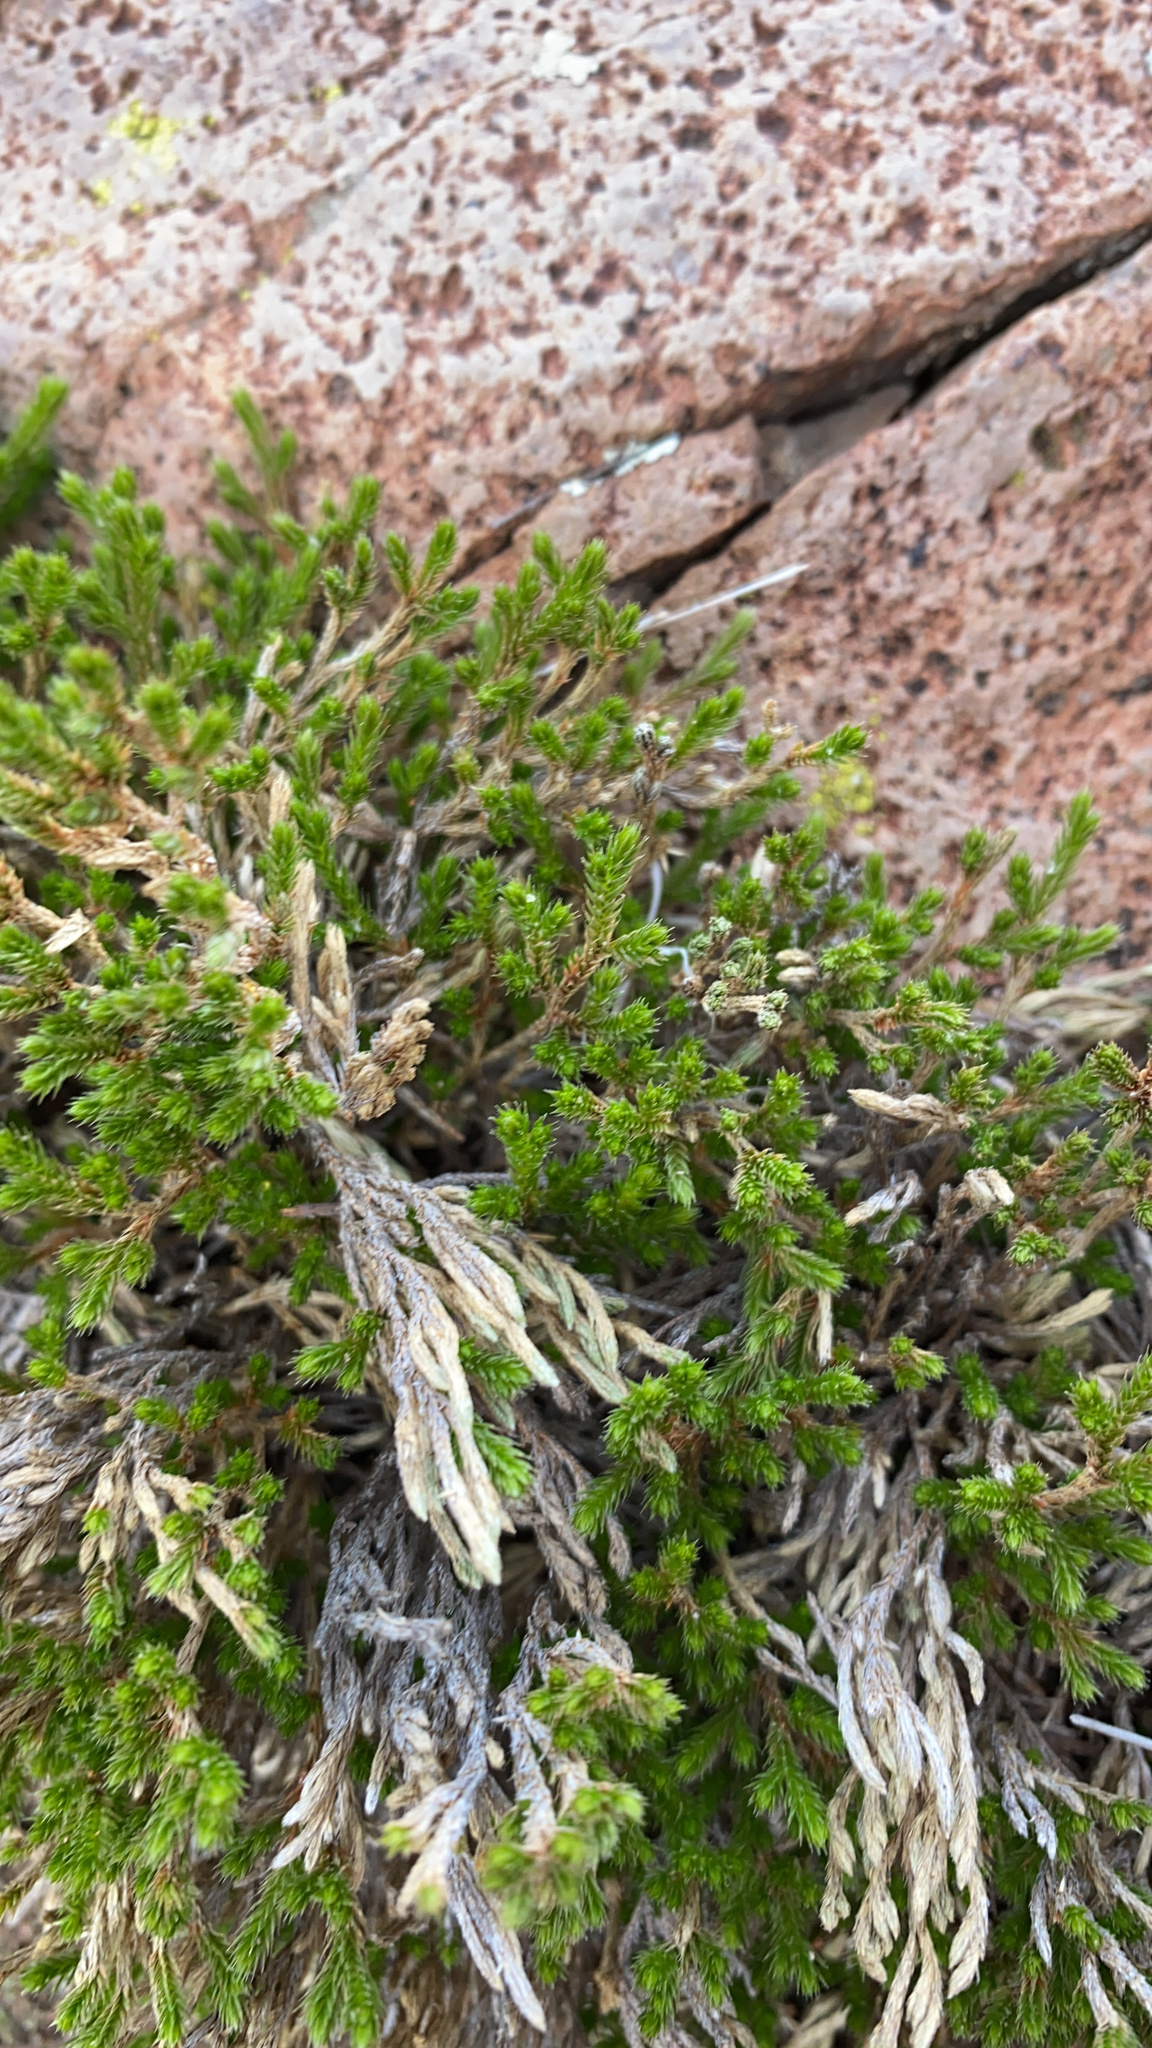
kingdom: Plantae
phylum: Tracheophyta
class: Lycopodiopsida
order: Selaginellales
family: Selaginellaceae
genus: Selaginella
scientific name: Selaginella bigelovii
